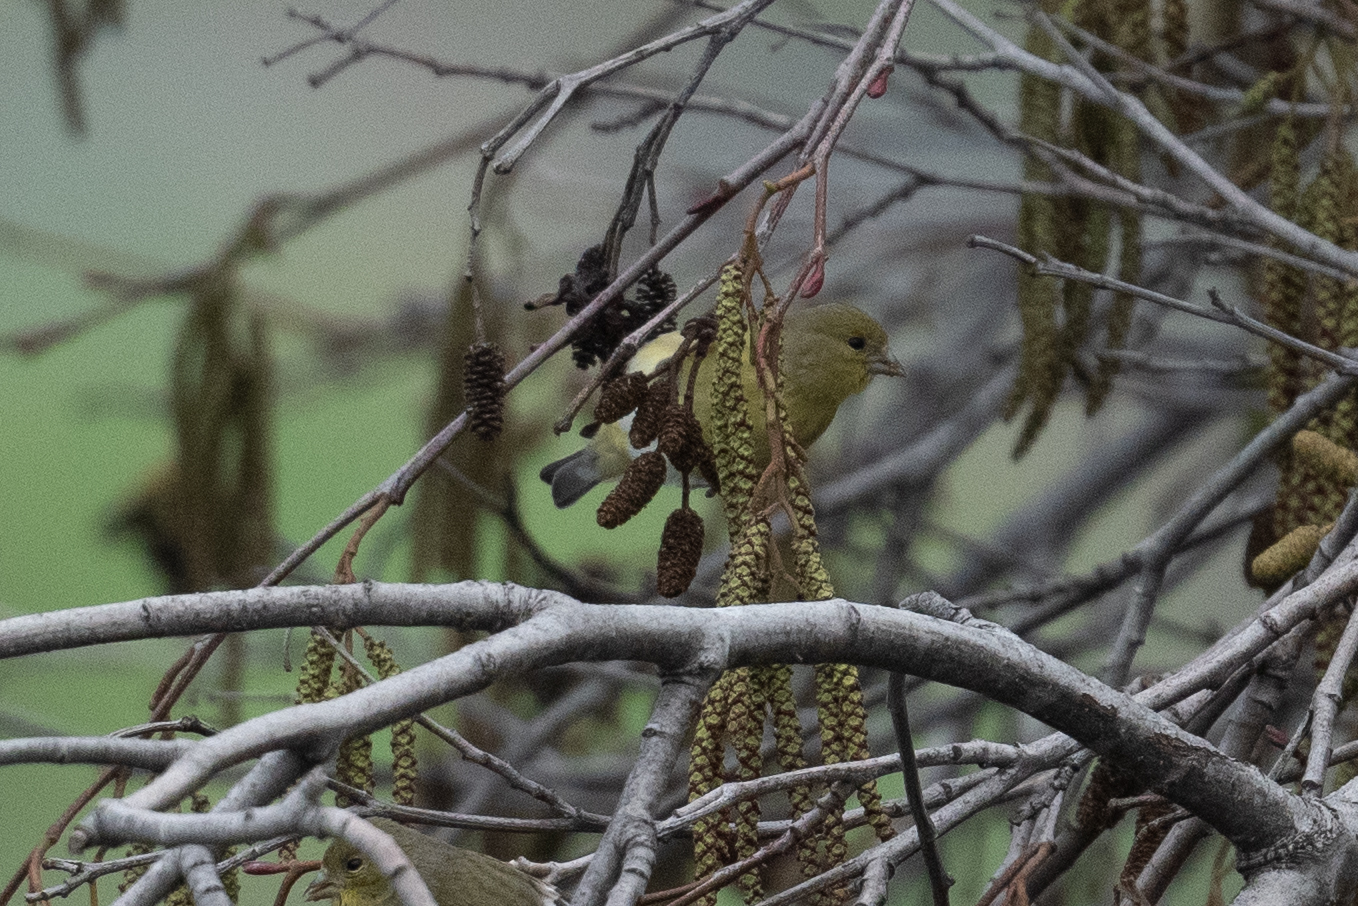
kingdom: Animalia
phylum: Chordata
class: Aves
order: Passeriformes
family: Fringillidae
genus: Spinus
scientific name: Spinus psaltria
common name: Lesser goldfinch
